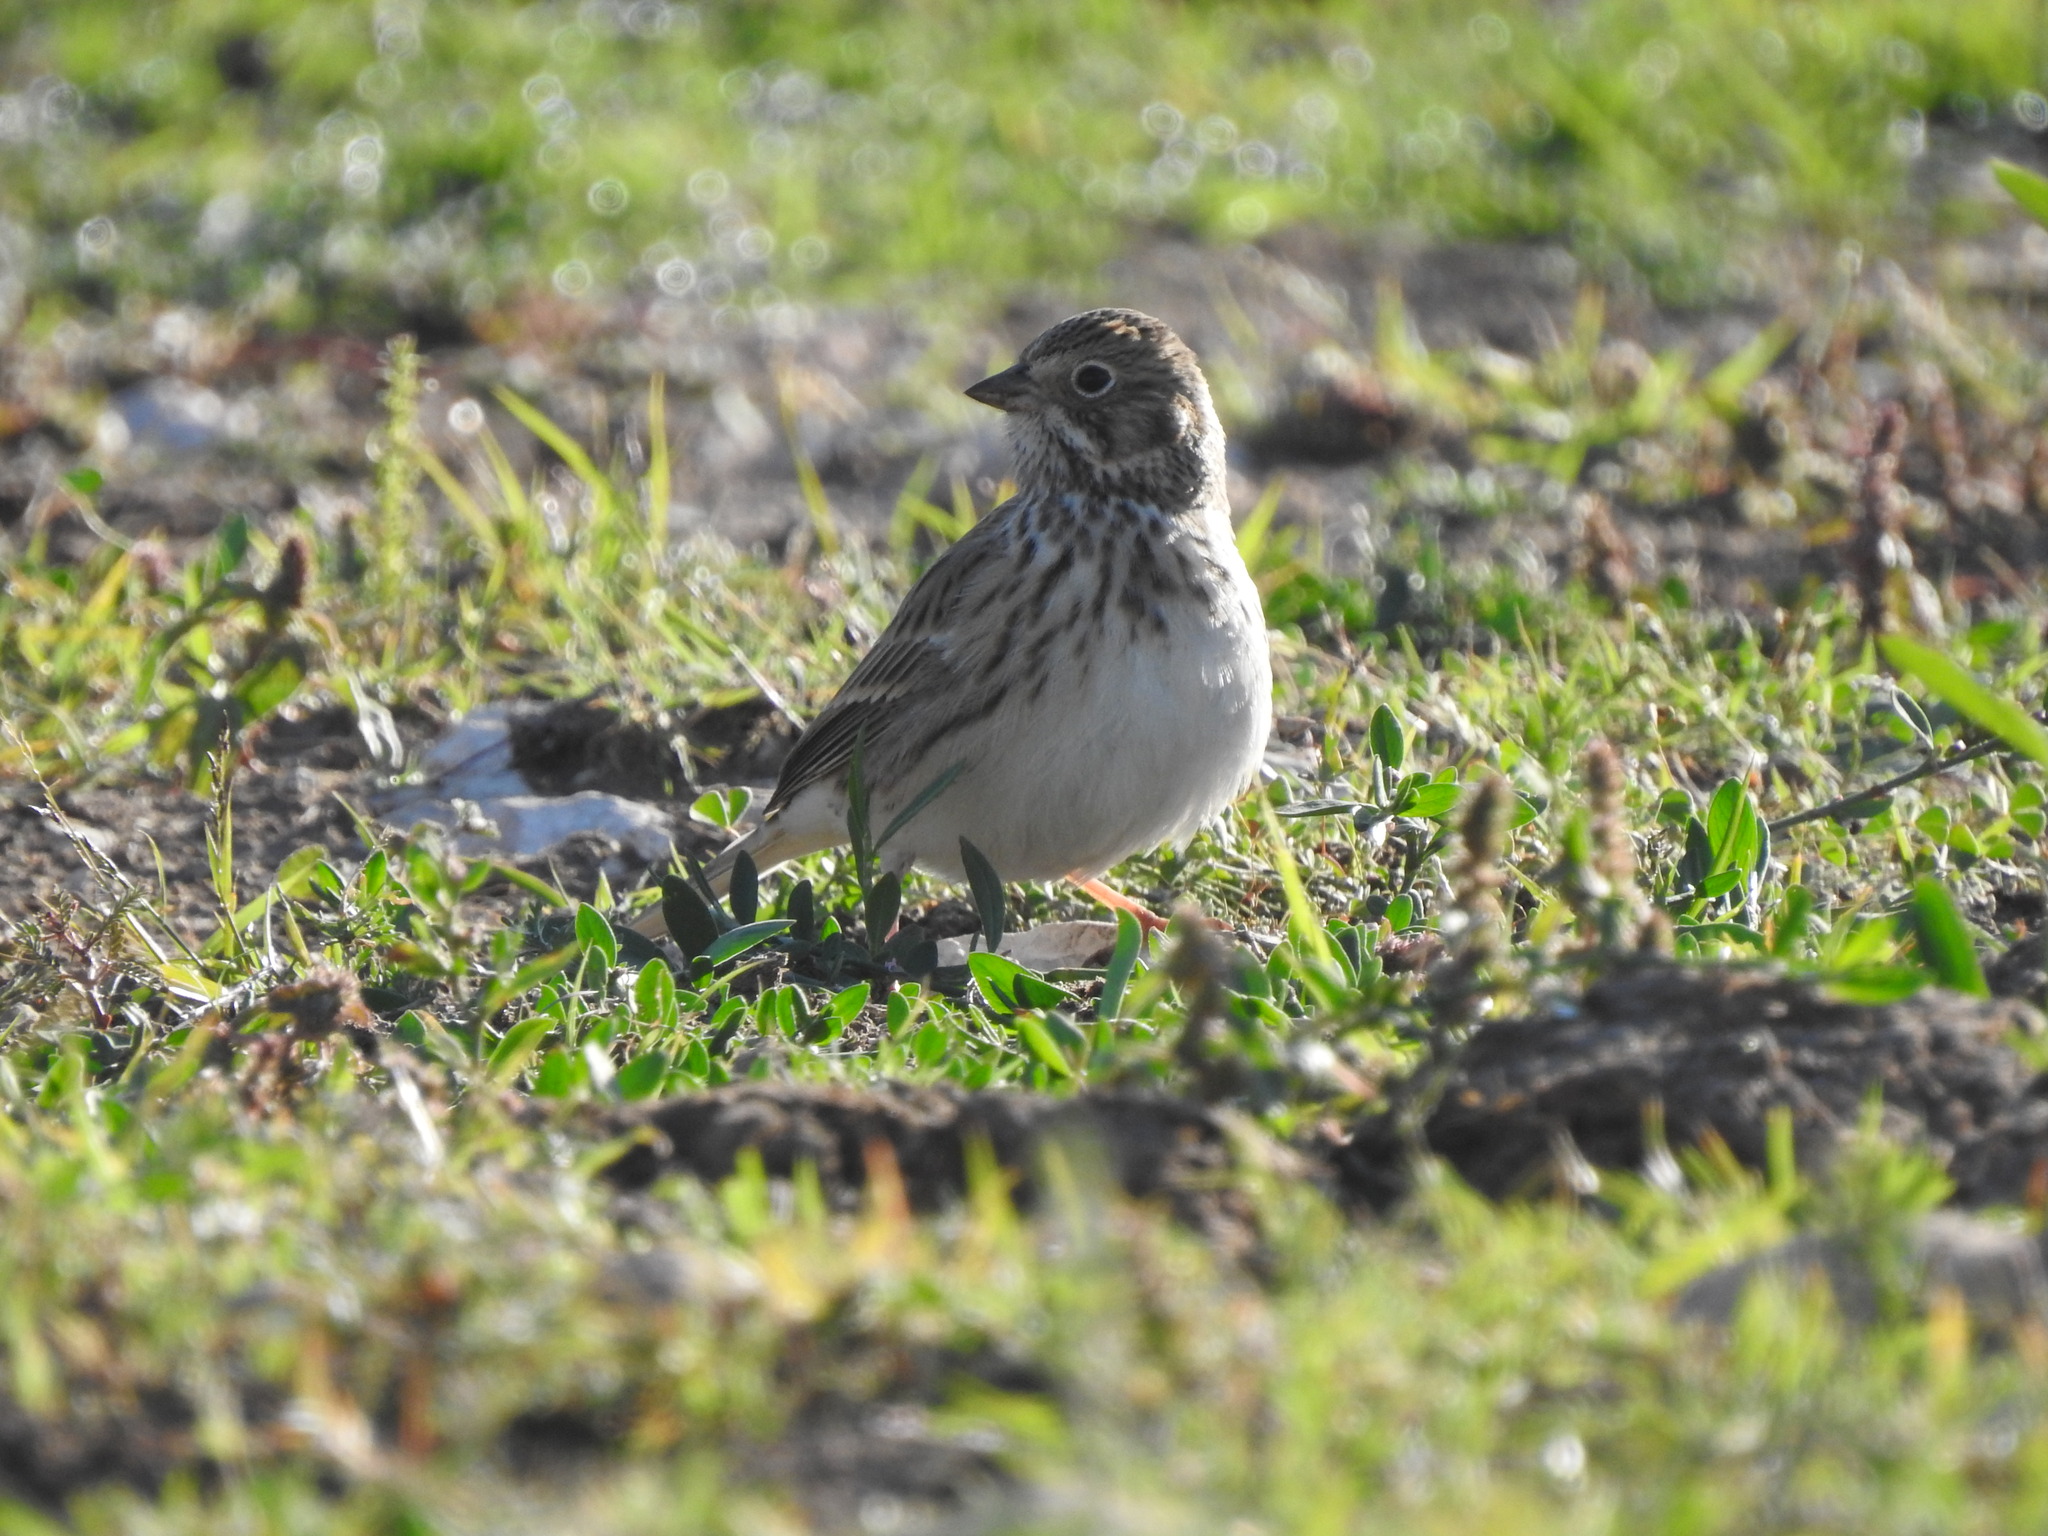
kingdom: Animalia
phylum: Chordata
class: Aves
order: Passeriformes
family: Passerellidae
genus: Pooecetes
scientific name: Pooecetes gramineus
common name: Vesper sparrow
